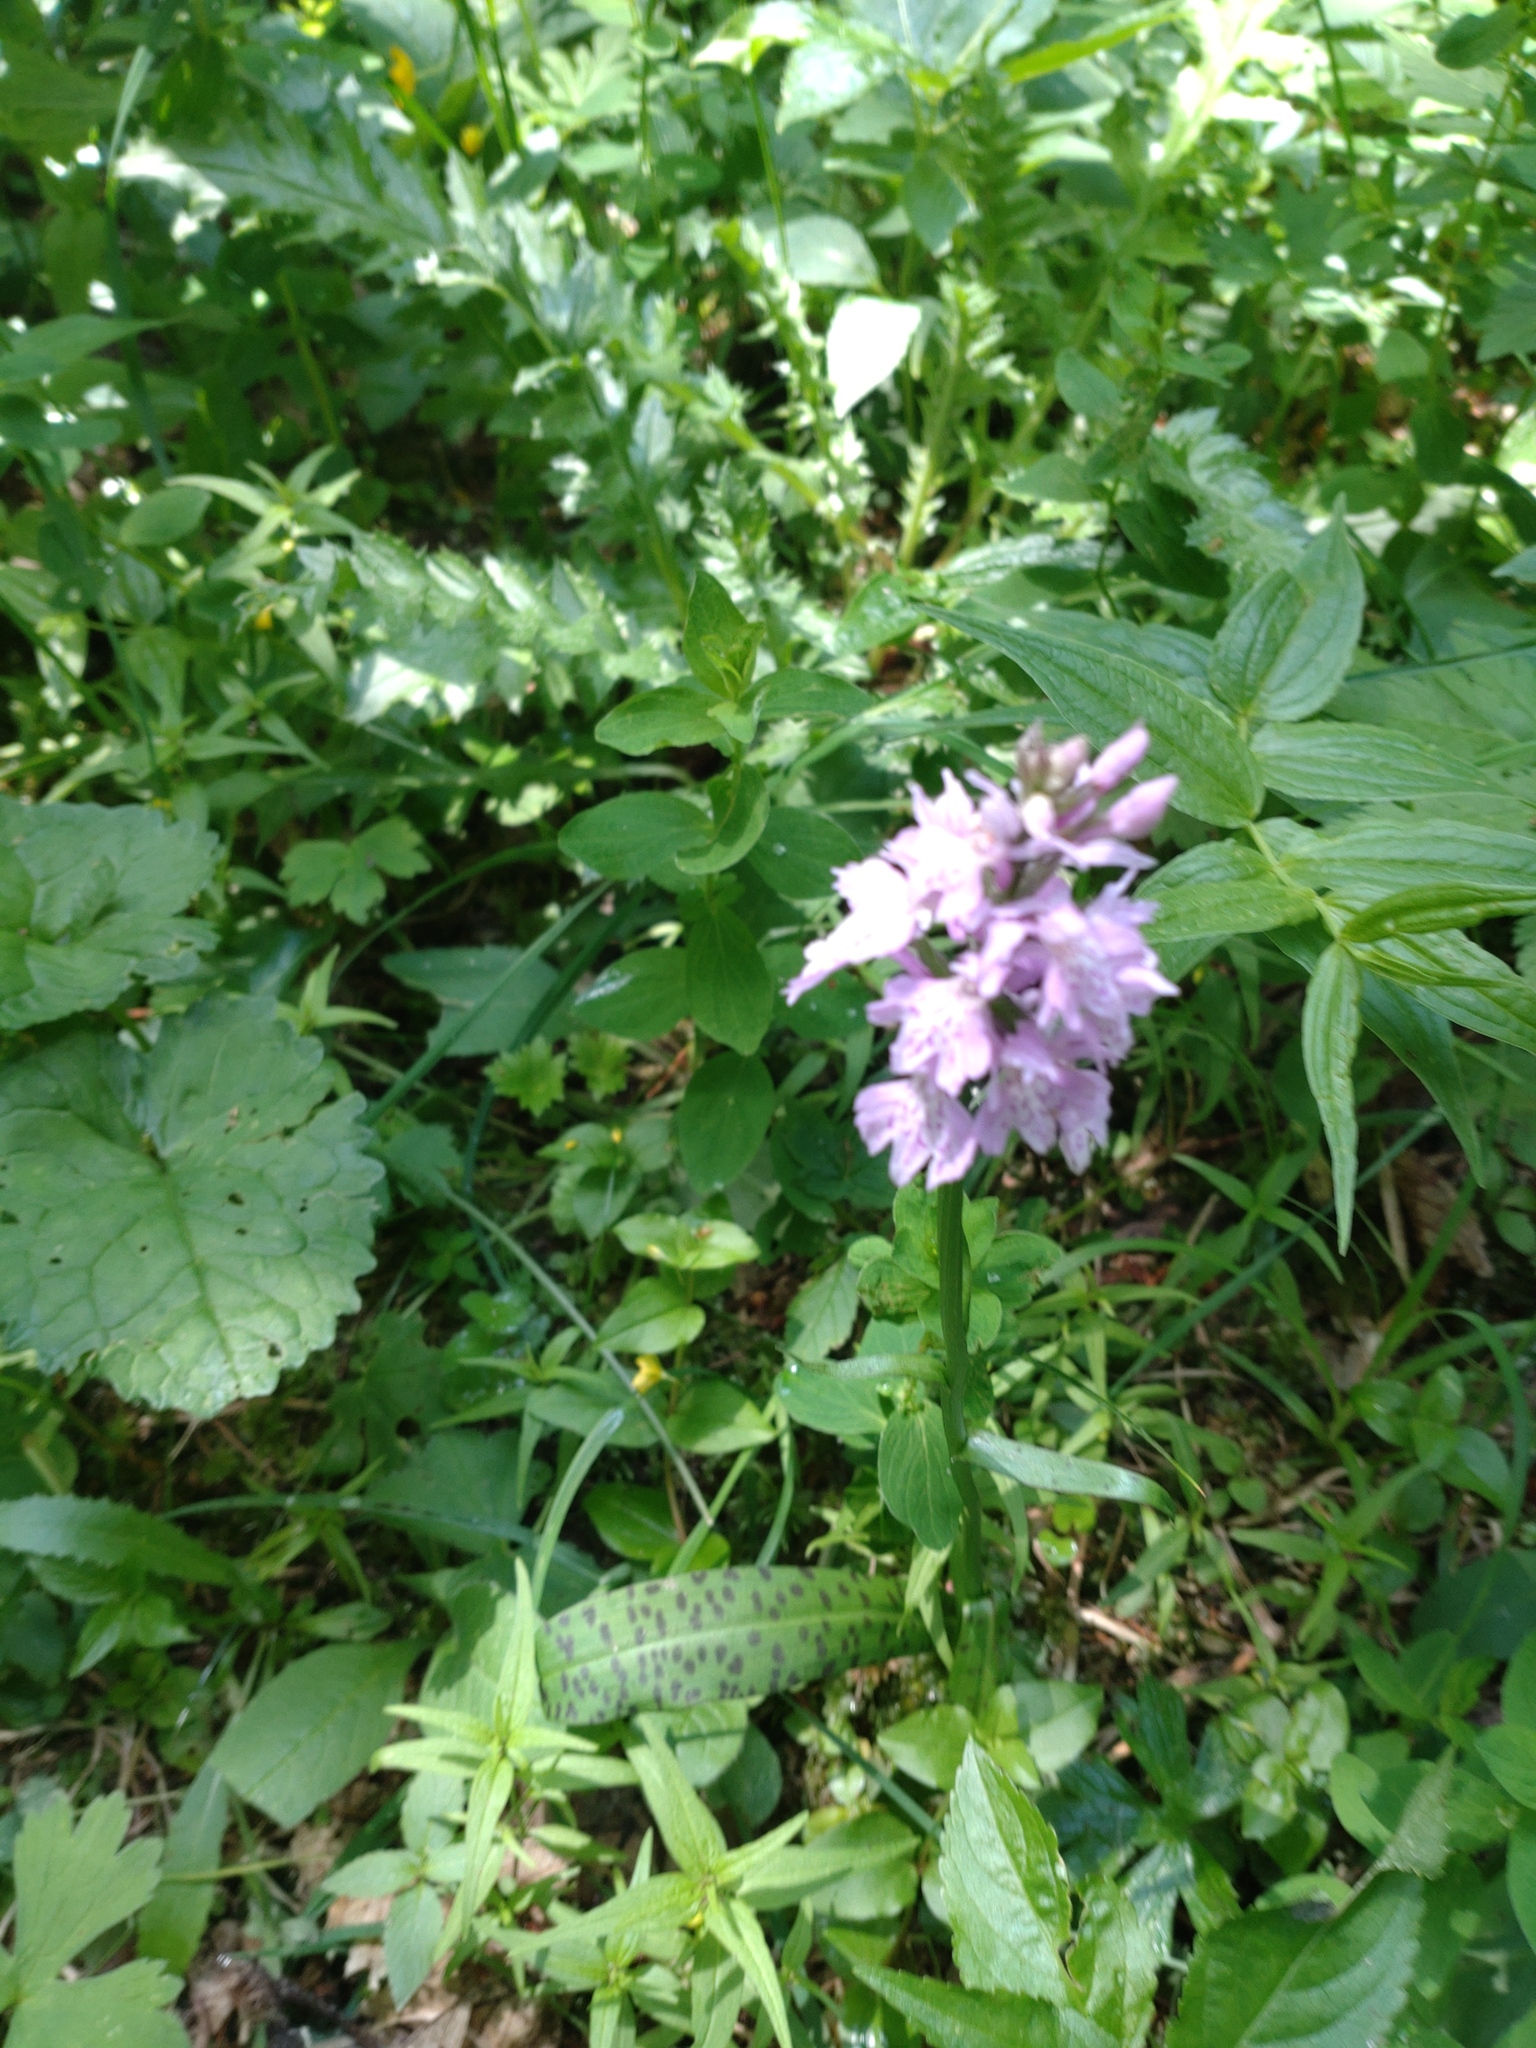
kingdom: Plantae
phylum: Tracheophyta
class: Liliopsida
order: Asparagales
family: Orchidaceae
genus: Dactylorhiza
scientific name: Dactylorhiza maculata
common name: Heath spotted-orchid
